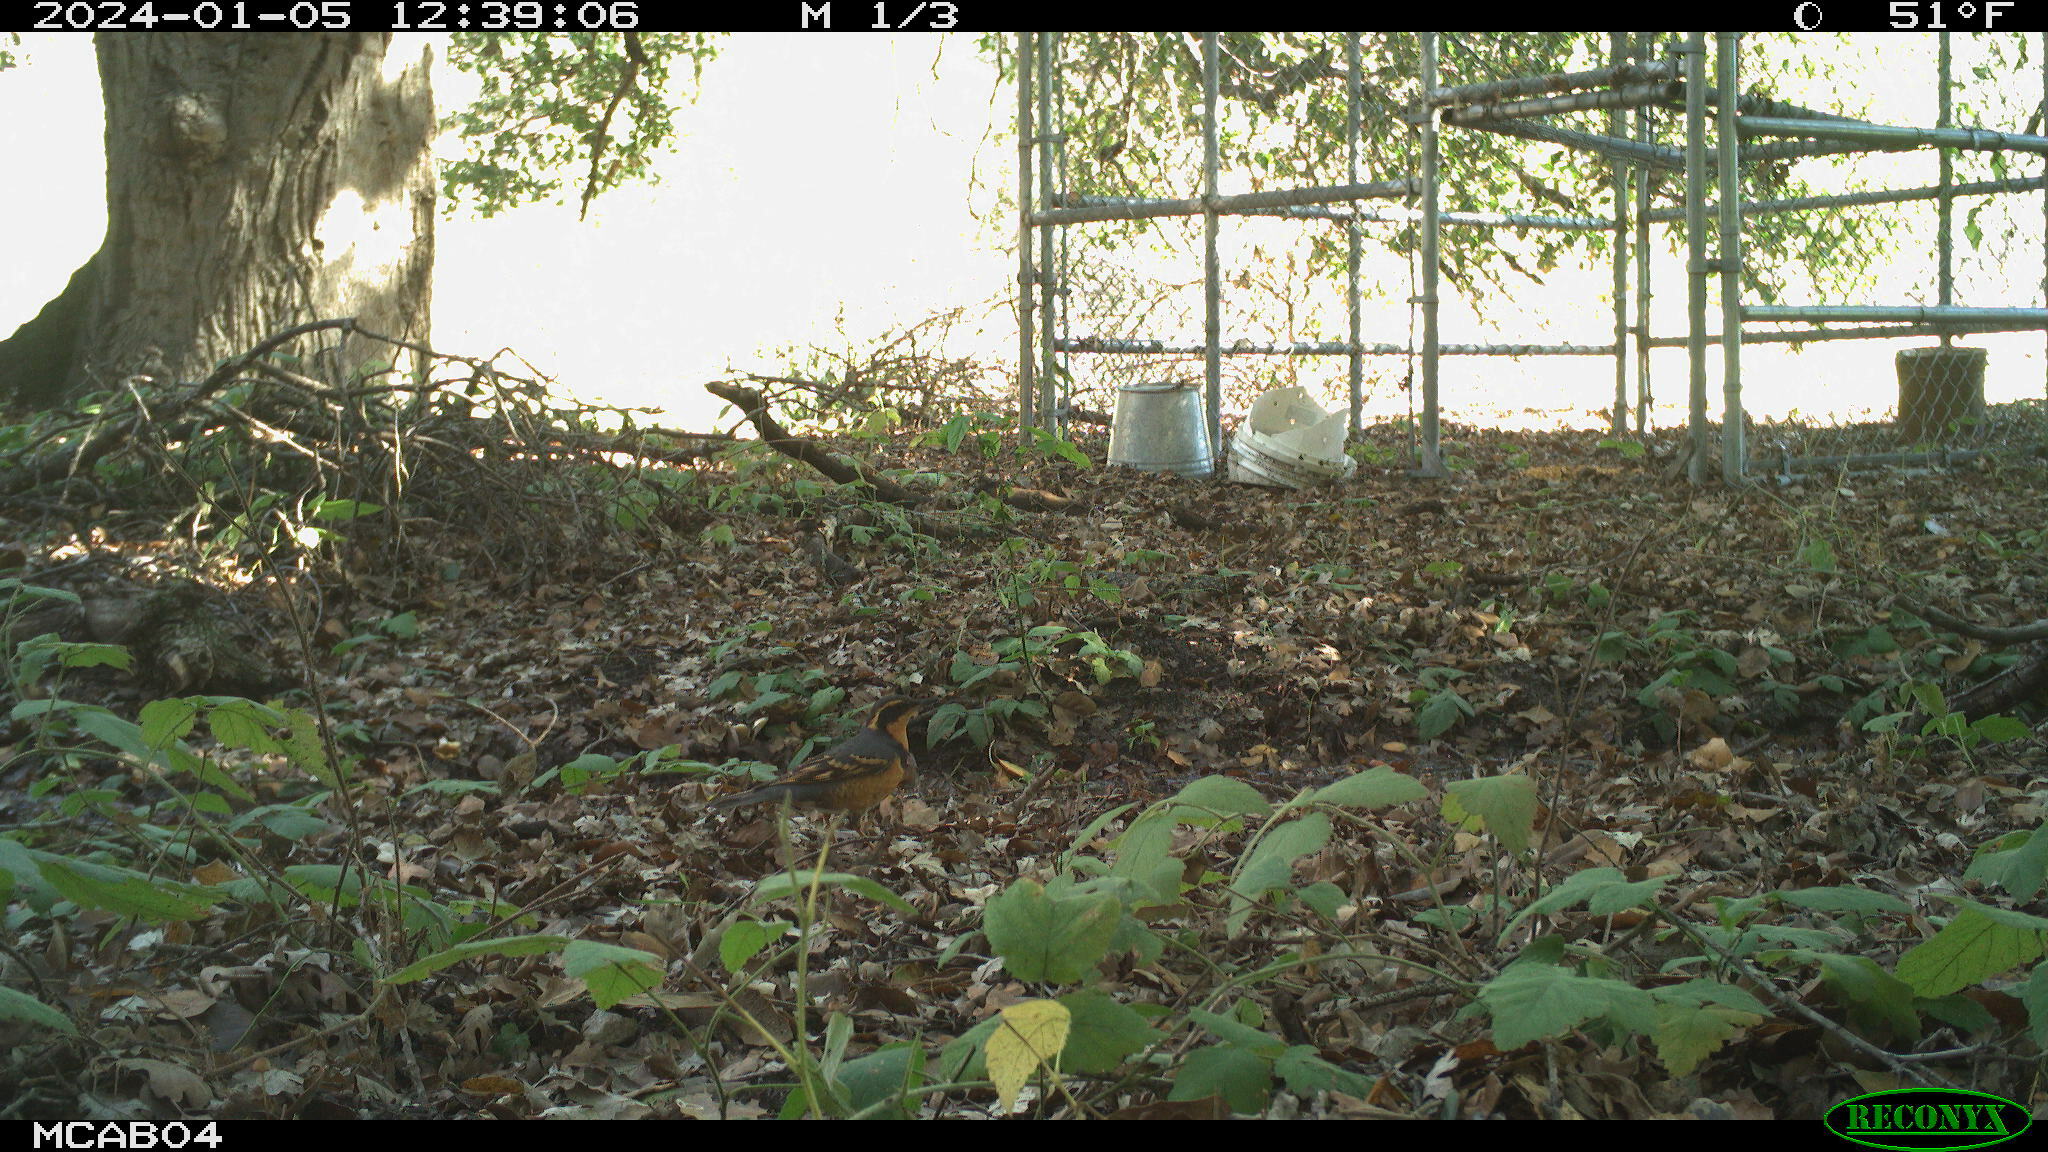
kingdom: Animalia
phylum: Chordata
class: Aves
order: Passeriformes
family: Turdidae
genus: Ixoreus
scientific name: Ixoreus naevius
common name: Varied thrush
